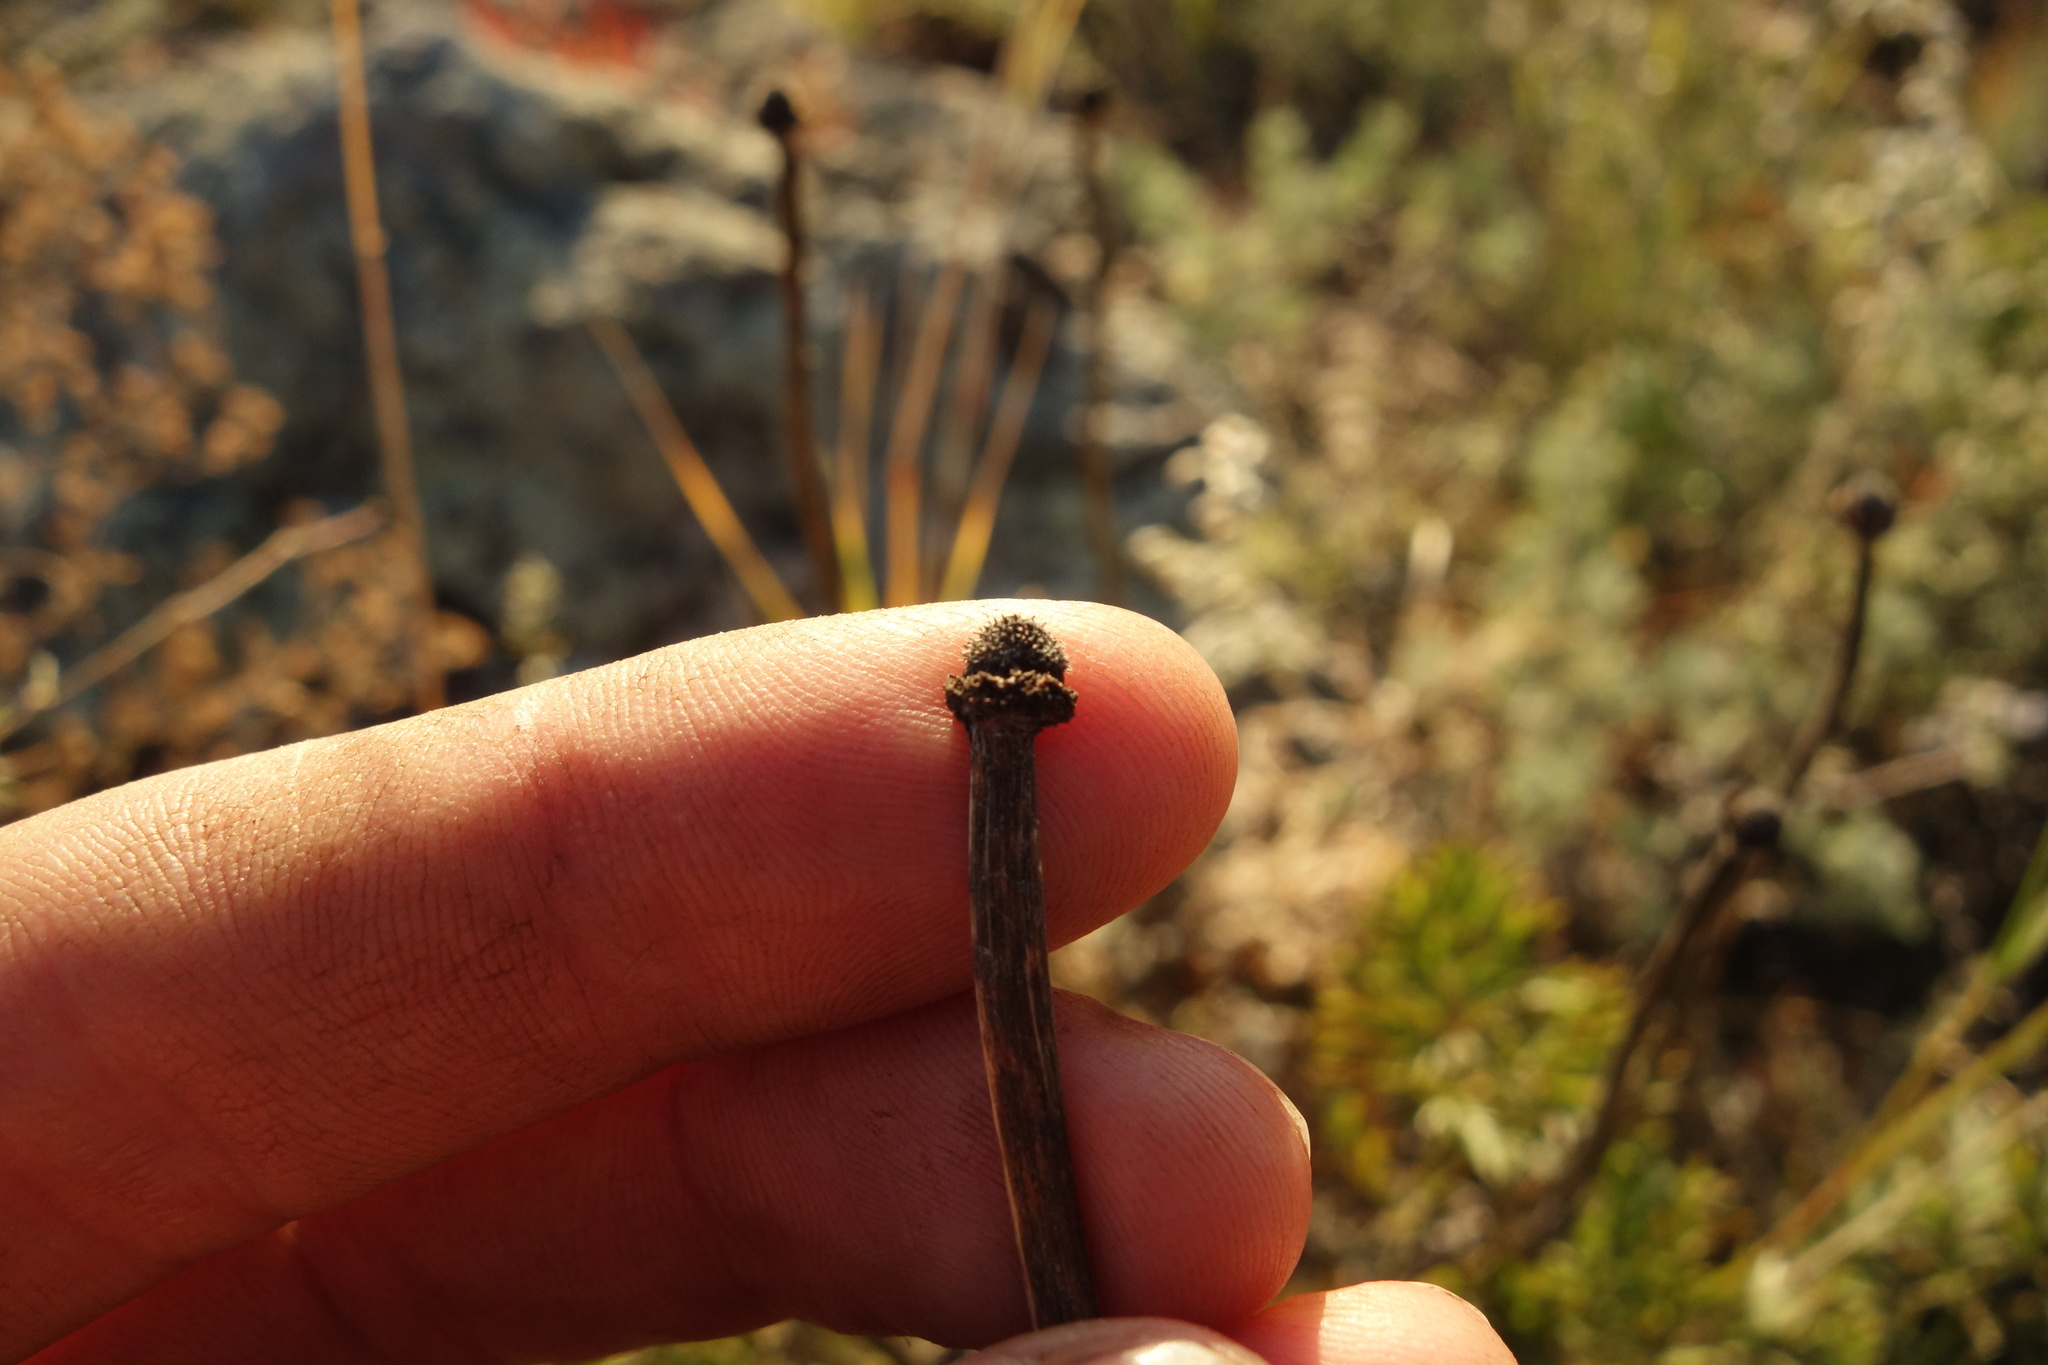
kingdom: Plantae
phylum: Tracheophyta
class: Magnoliopsida
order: Ranunculales
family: Ranunculaceae
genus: Pulsatilla
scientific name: Pulsatilla turczaninovii
